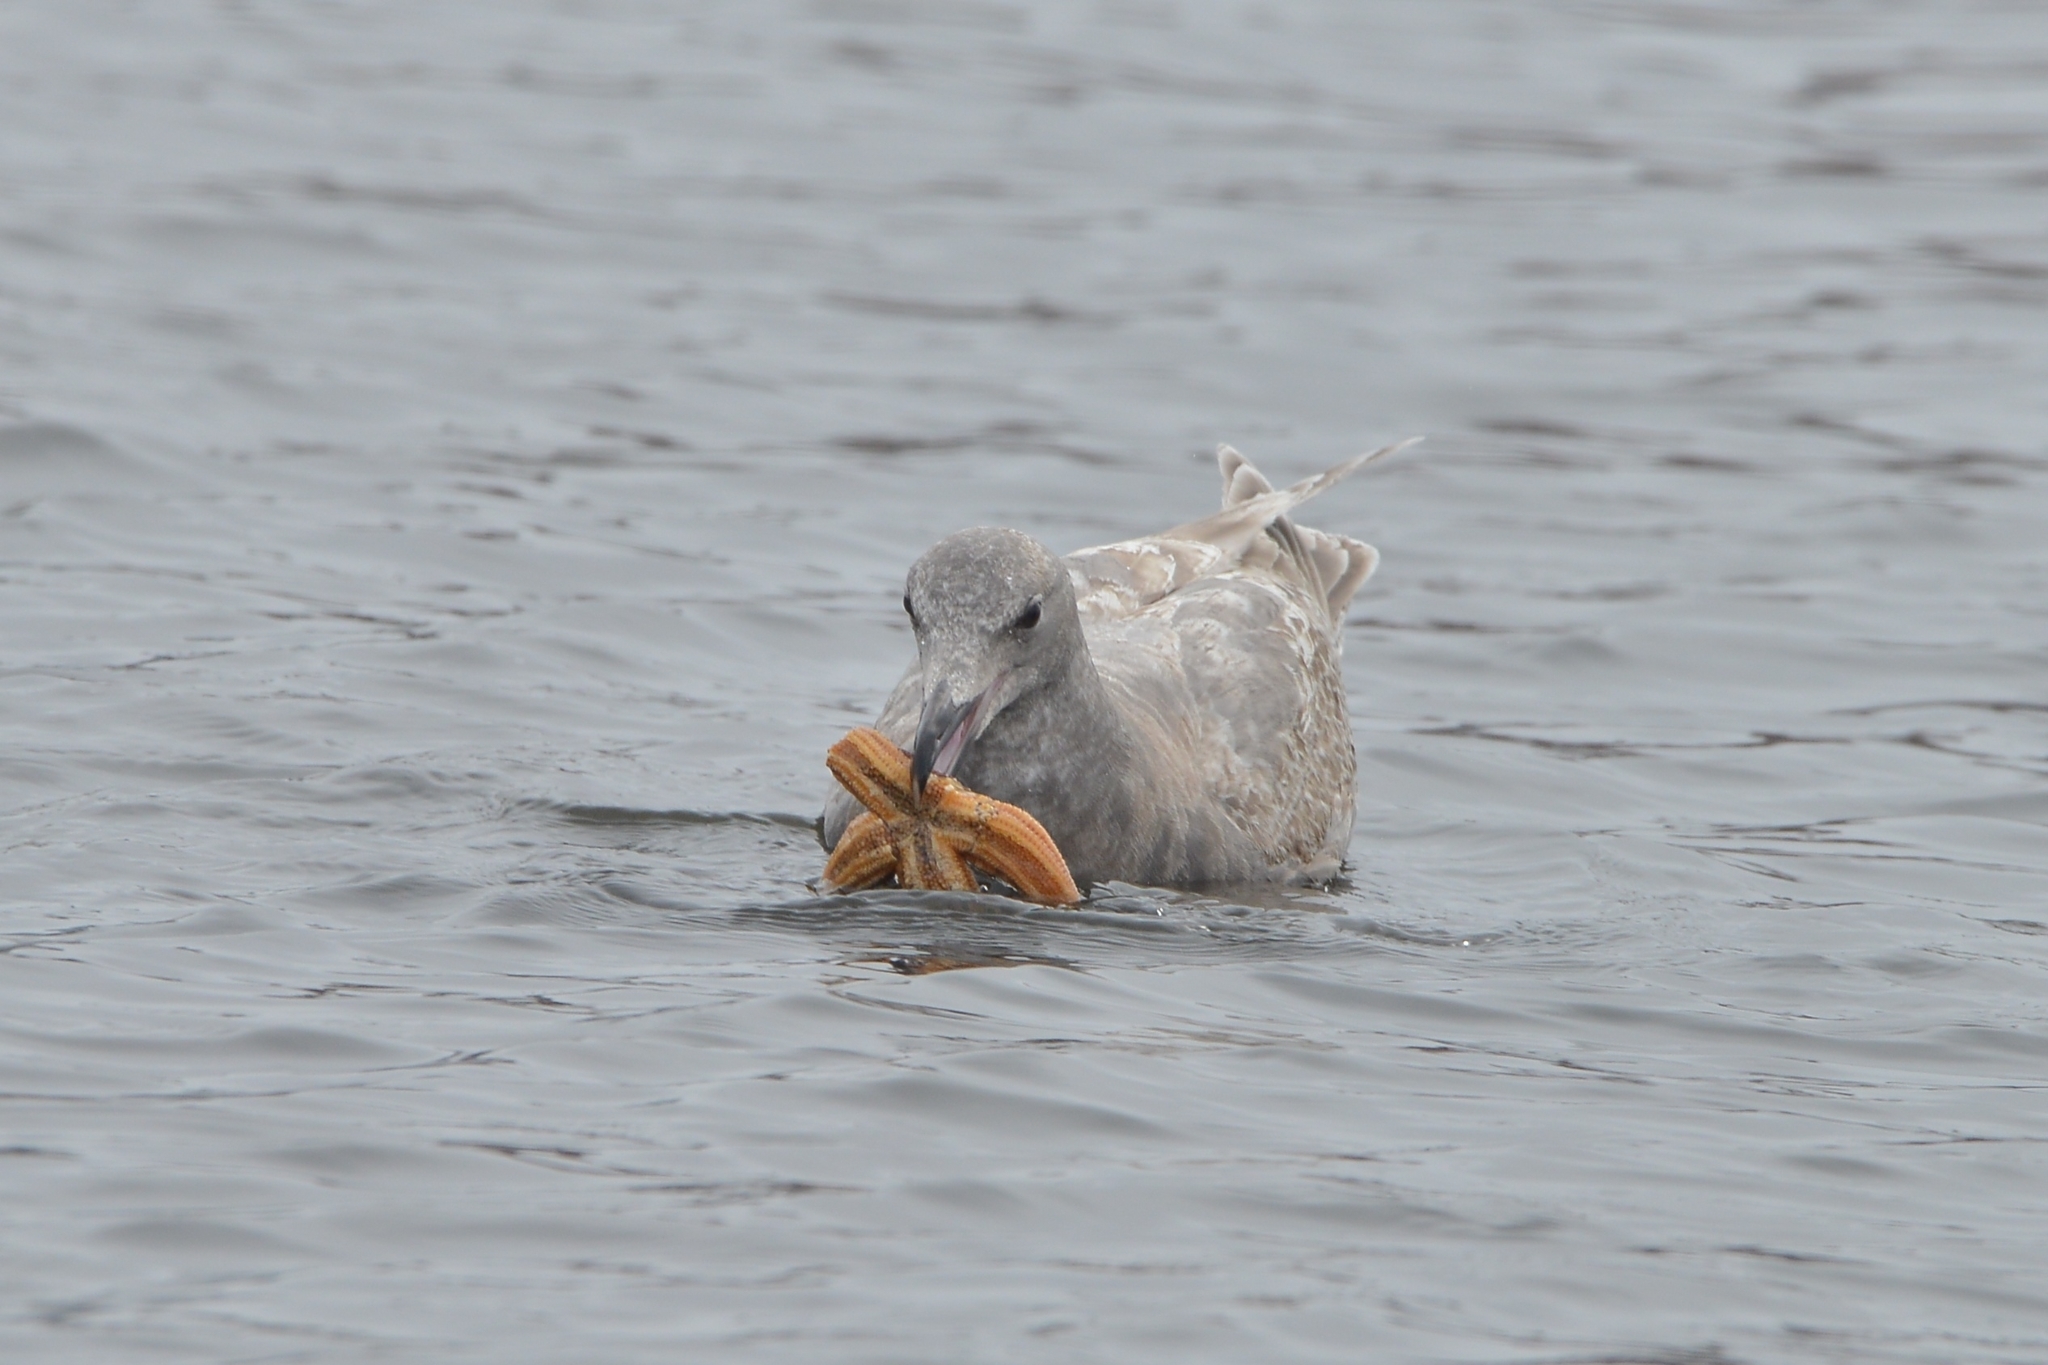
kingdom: Animalia
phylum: Chordata
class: Aves
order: Charadriiformes
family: Laridae
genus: Larus
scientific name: Larus glaucescens
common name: Glaucous-winged gull
